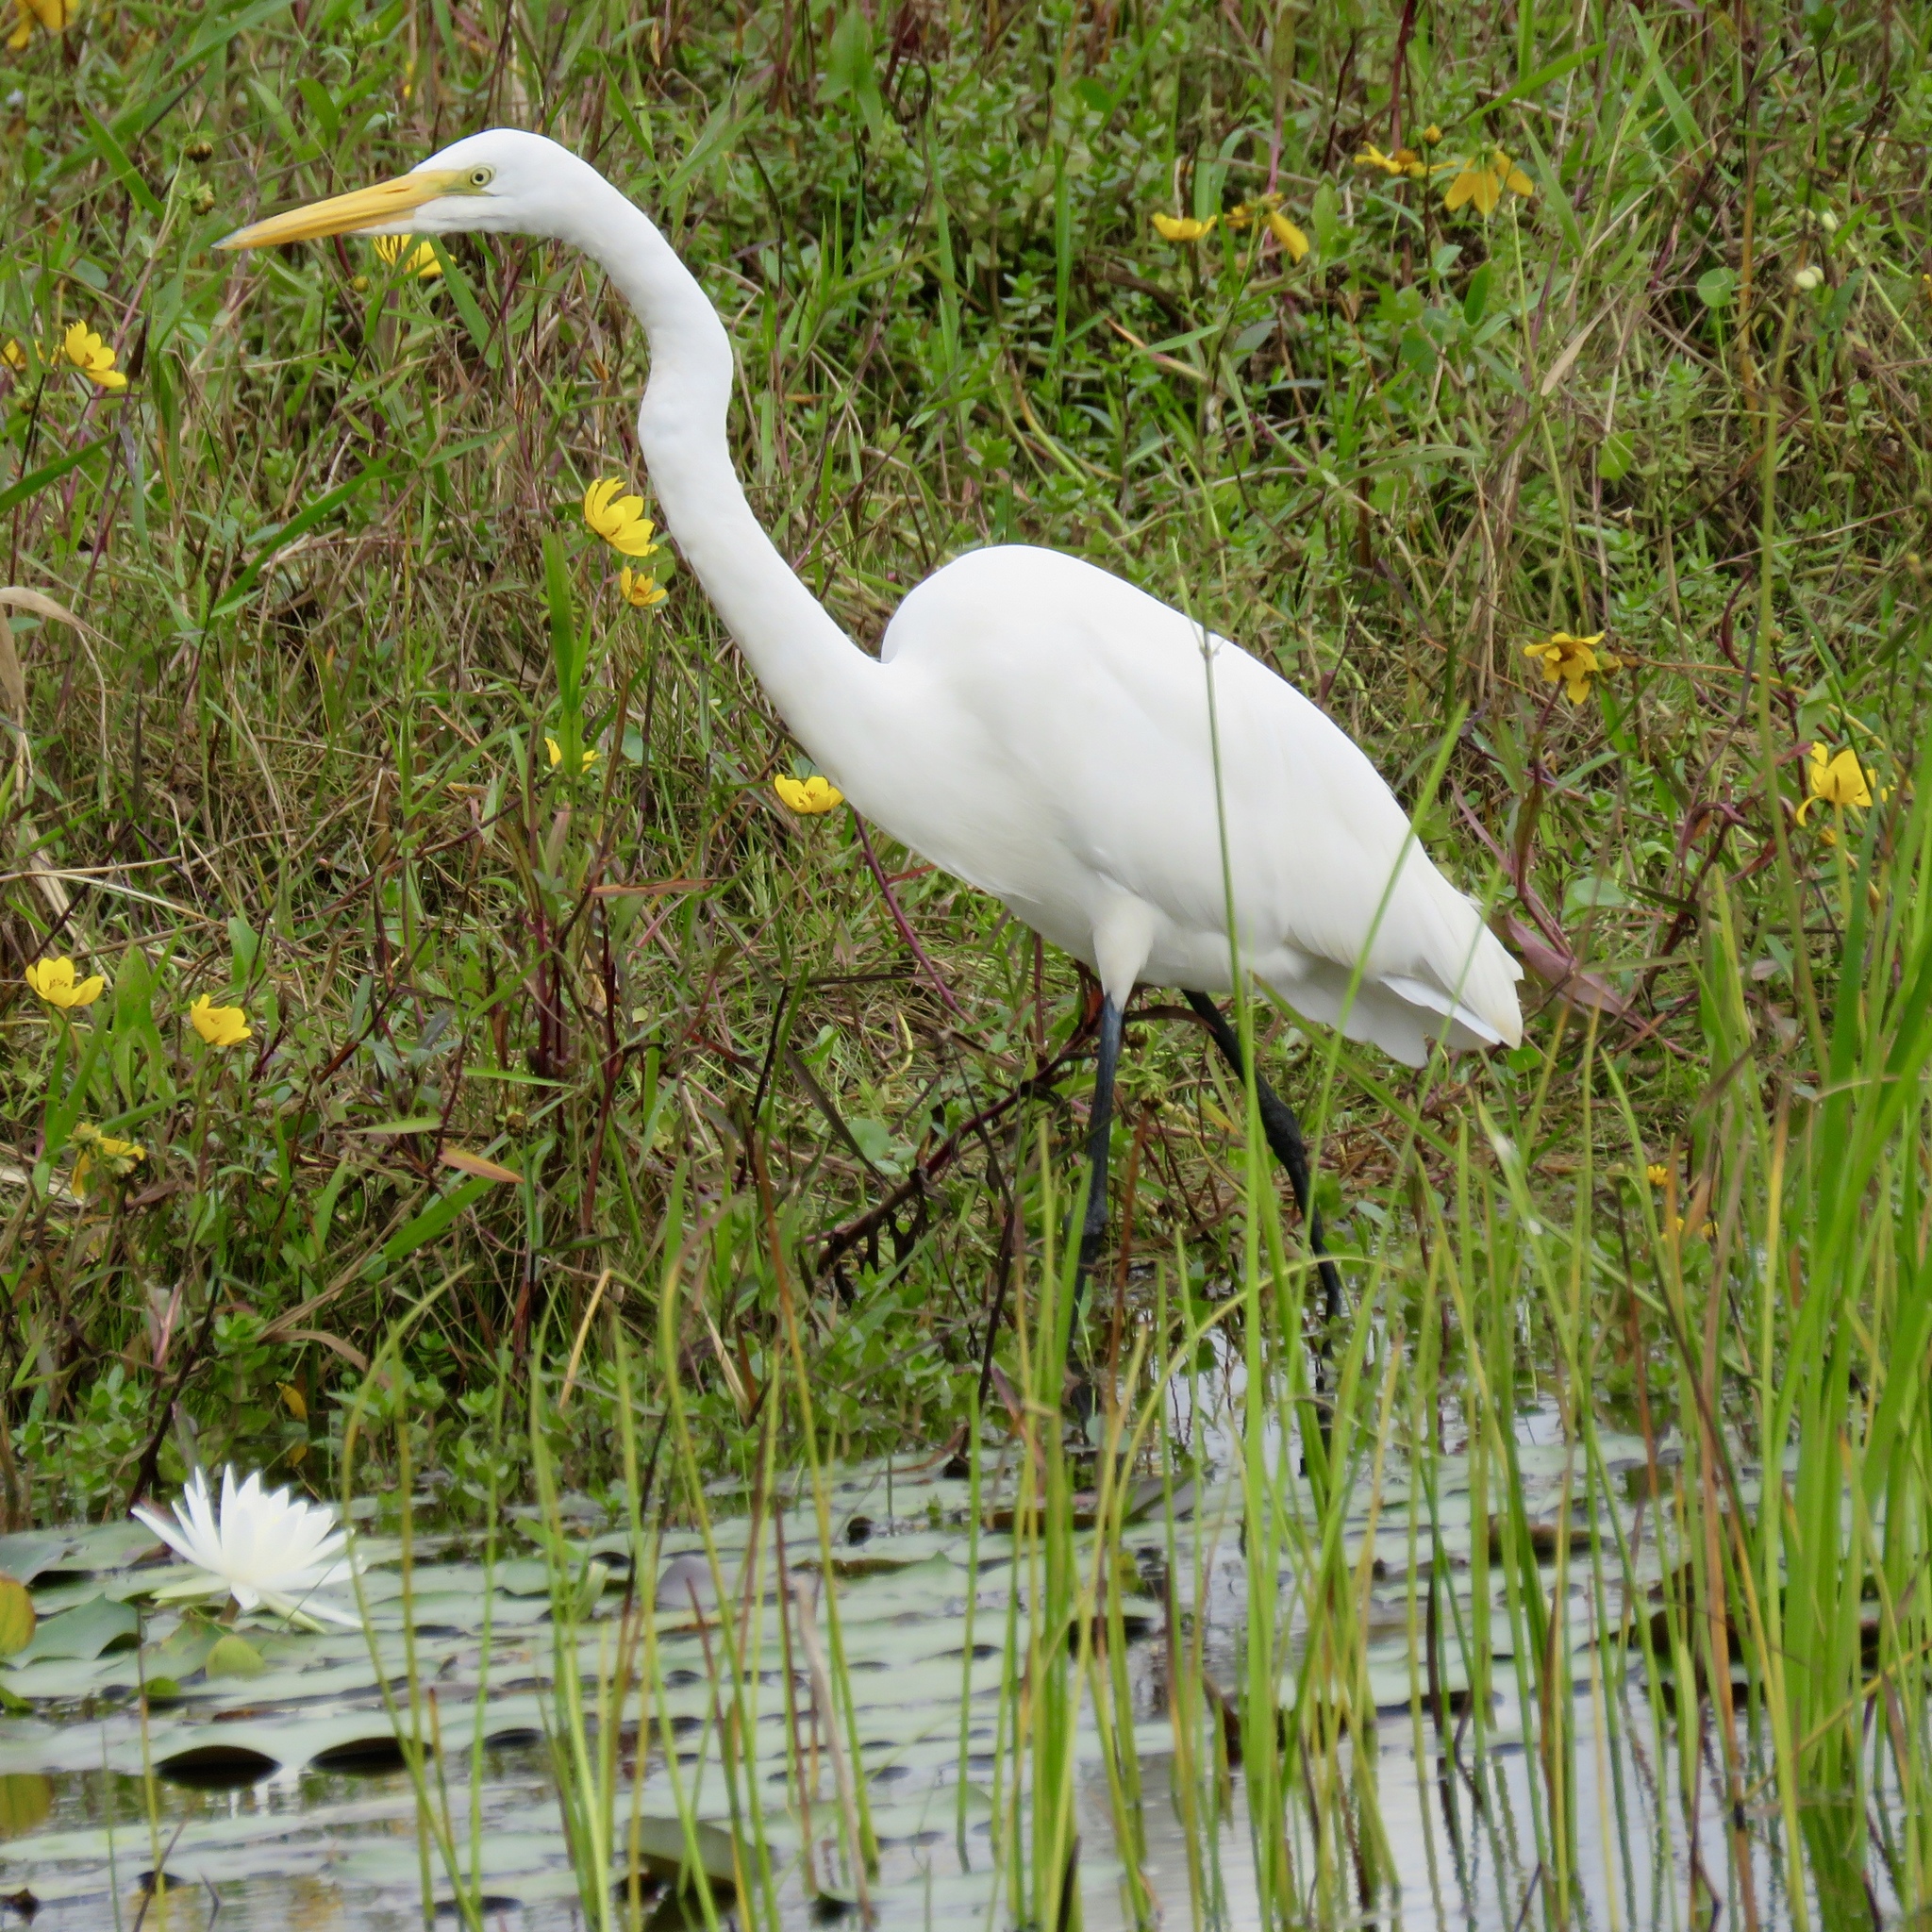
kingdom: Animalia
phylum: Chordata
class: Aves
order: Pelecaniformes
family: Ardeidae
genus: Ardea
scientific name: Ardea alba
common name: Great egret
